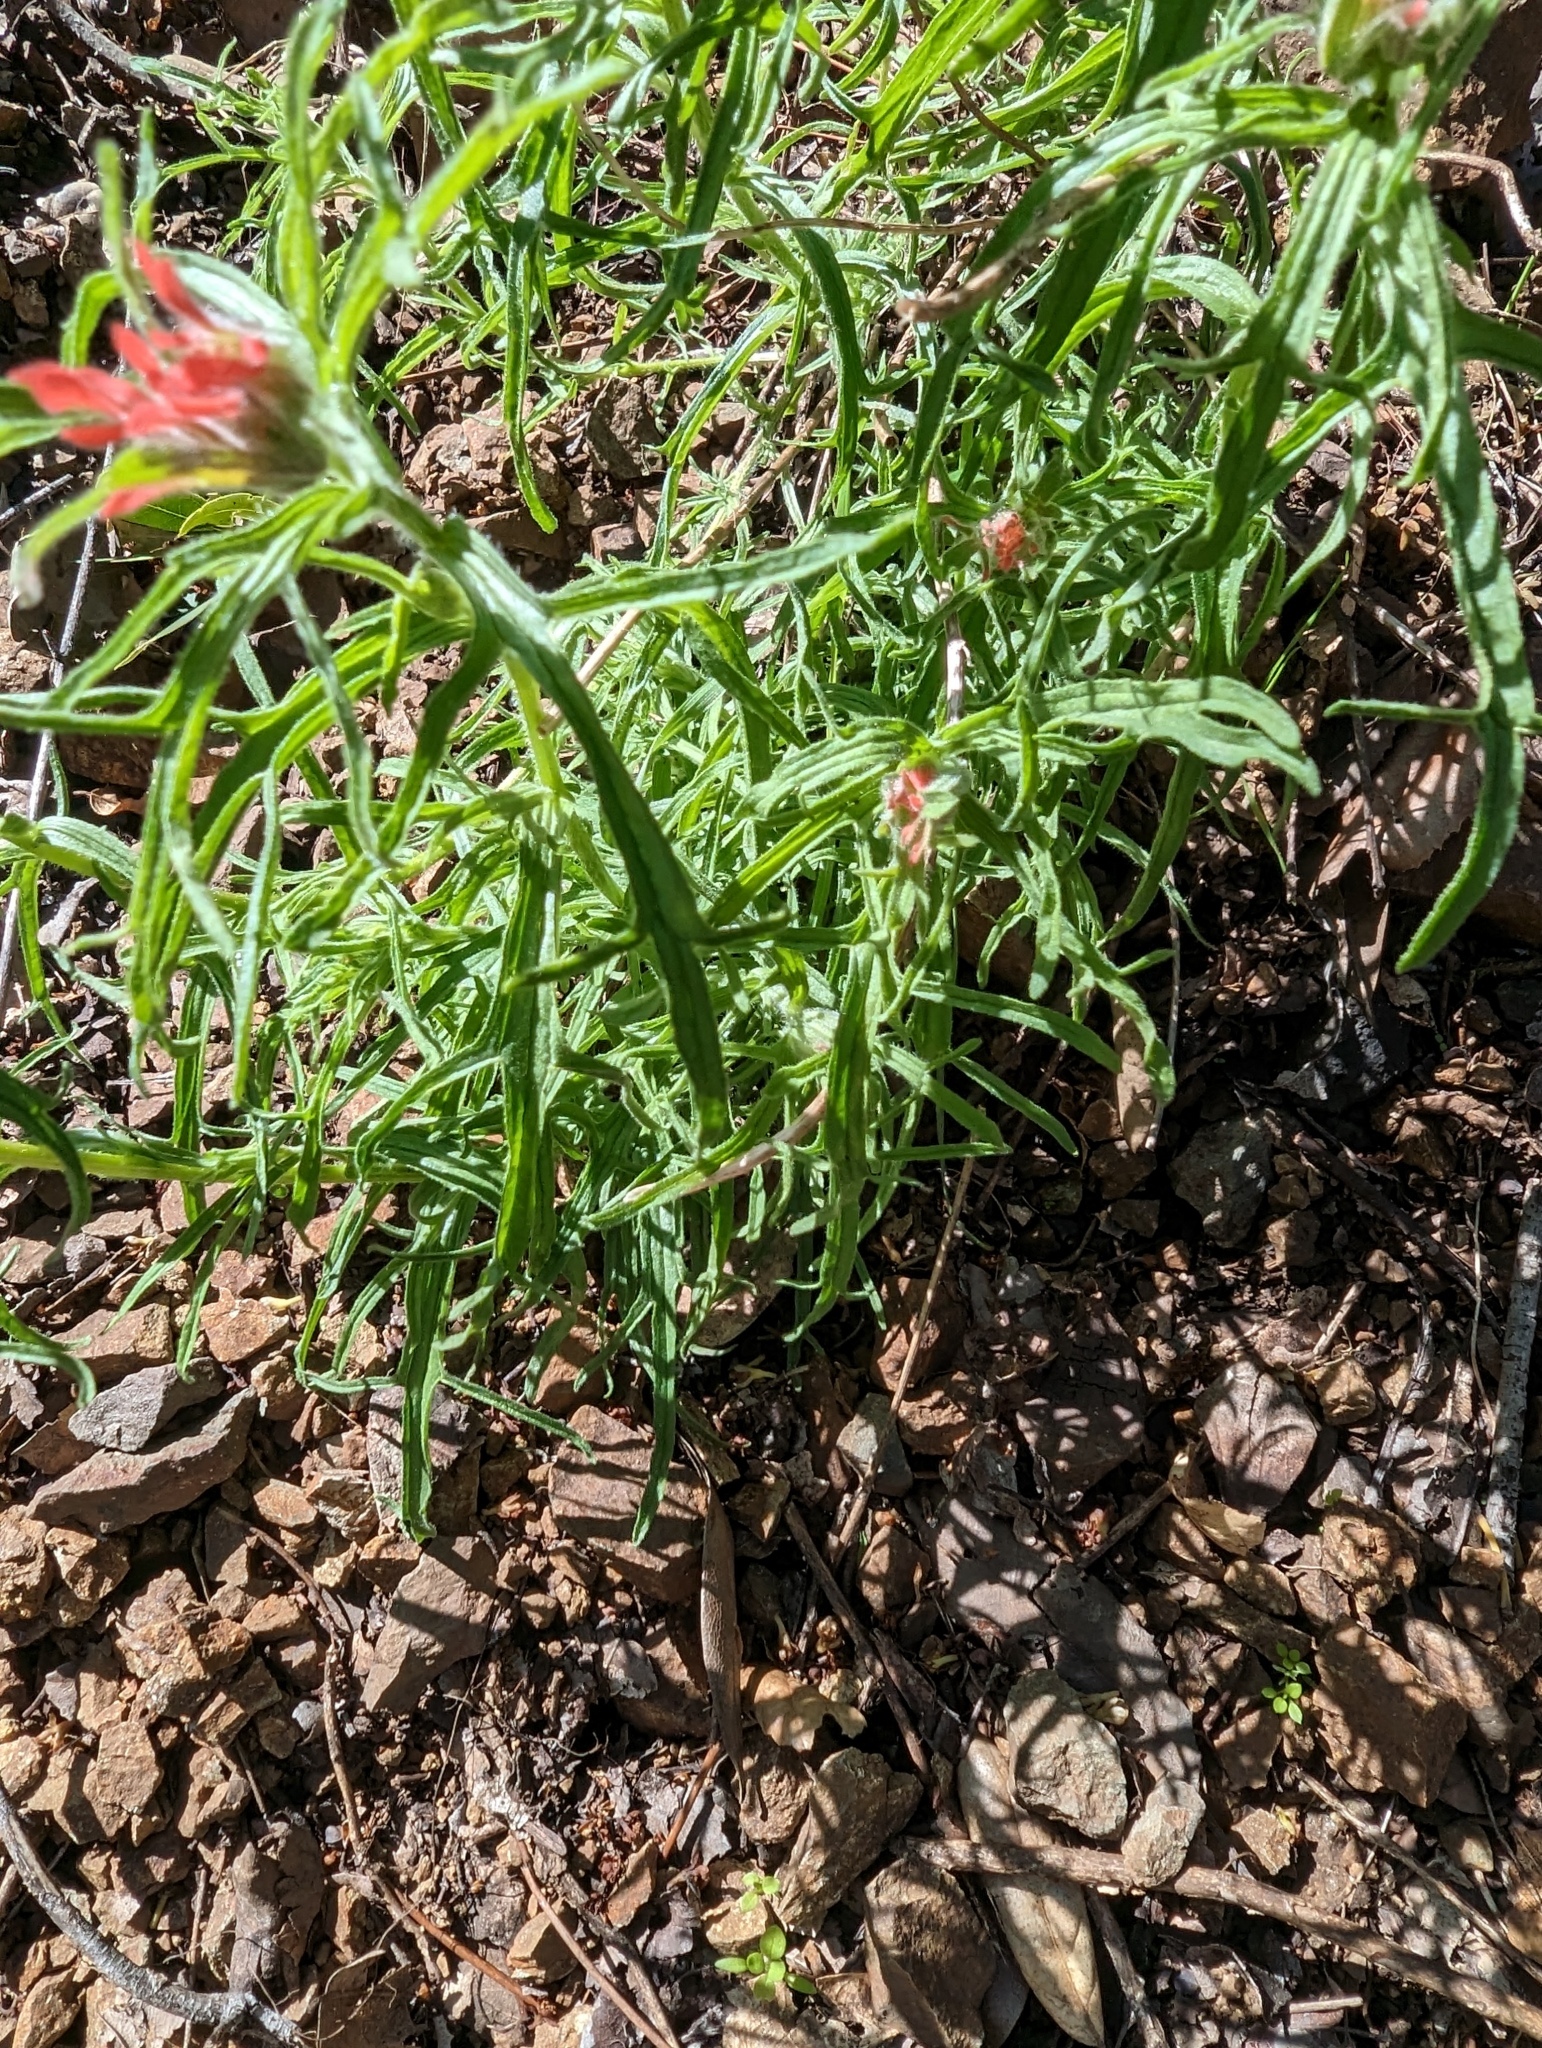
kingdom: Plantae
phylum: Tracheophyta
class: Magnoliopsida
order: Lamiales
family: Orobanchaceae
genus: Castilleja
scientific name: Castilleja affinis
